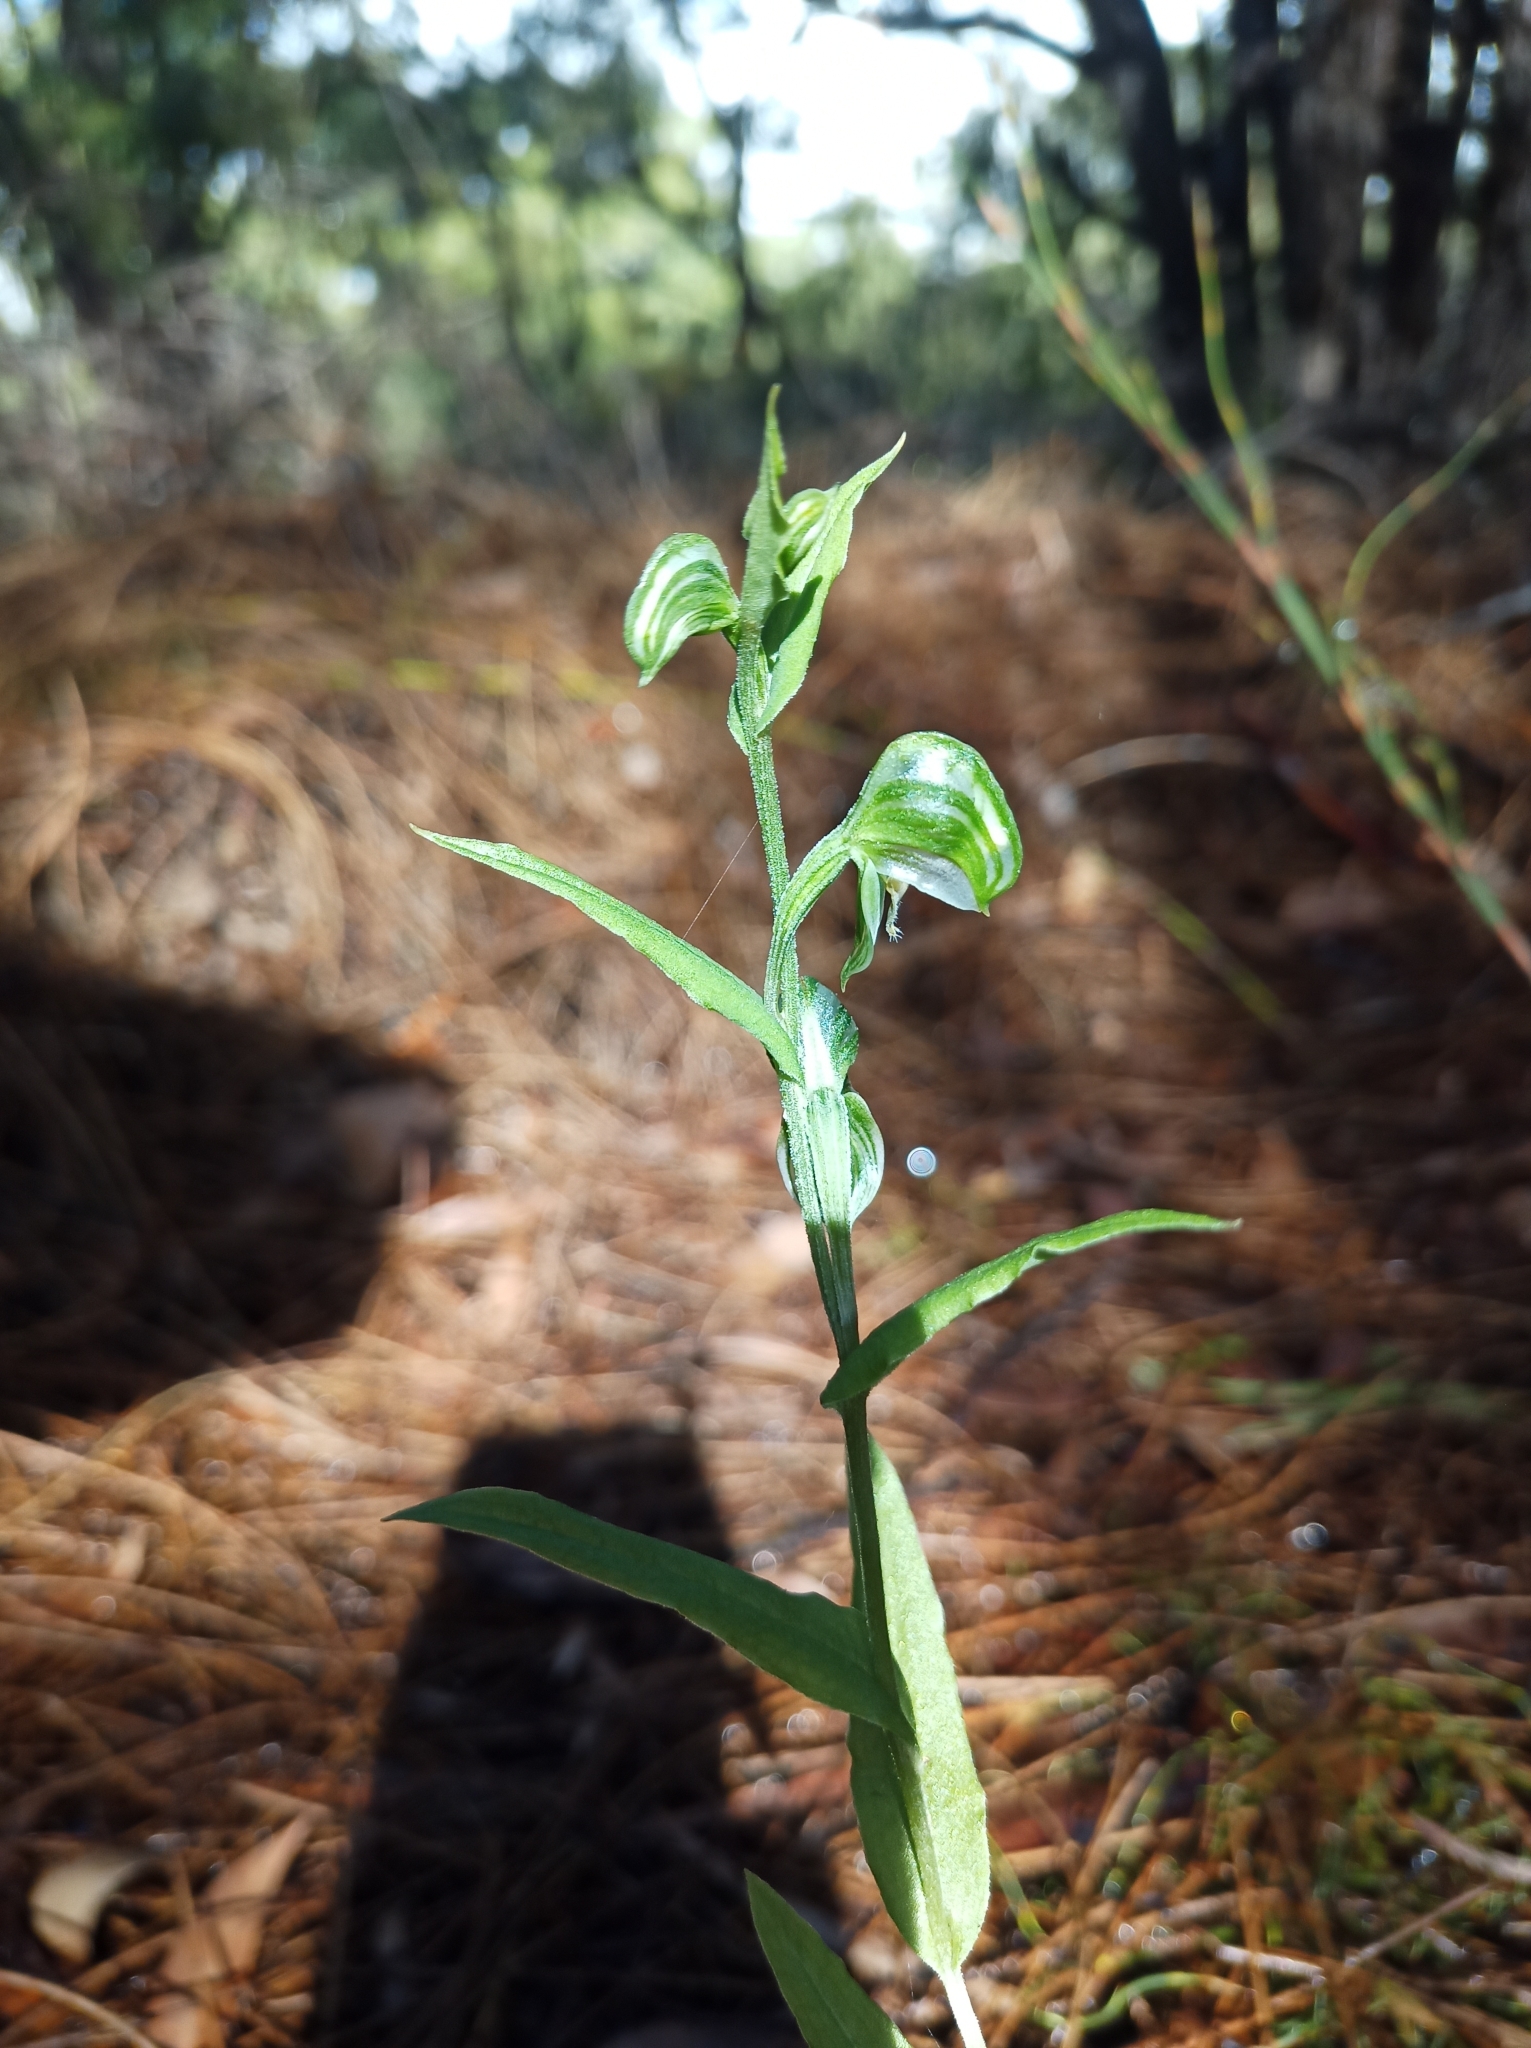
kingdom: Plantae
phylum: Tracheophyta
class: Liliopsida
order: Asparagales
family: Orchidaceae
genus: Pterostylis
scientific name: Pterostylis vittata
